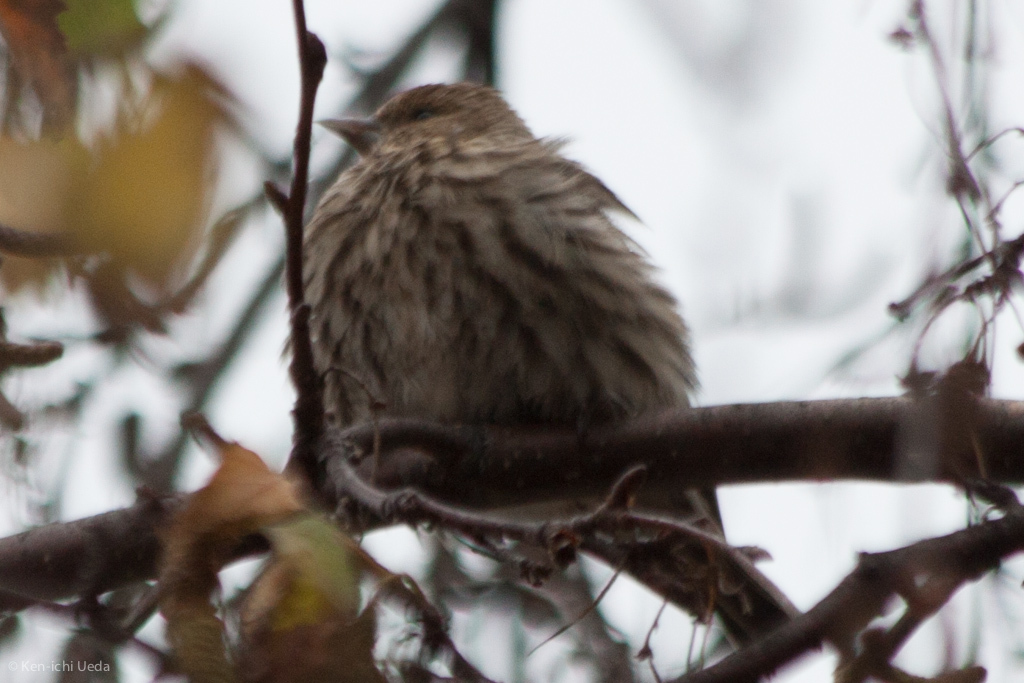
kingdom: Animalia
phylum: Chordata
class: Aves
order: Passeriformes
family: Fringillidae
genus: Spinus
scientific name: Spinus pinus
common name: Pine siskin
